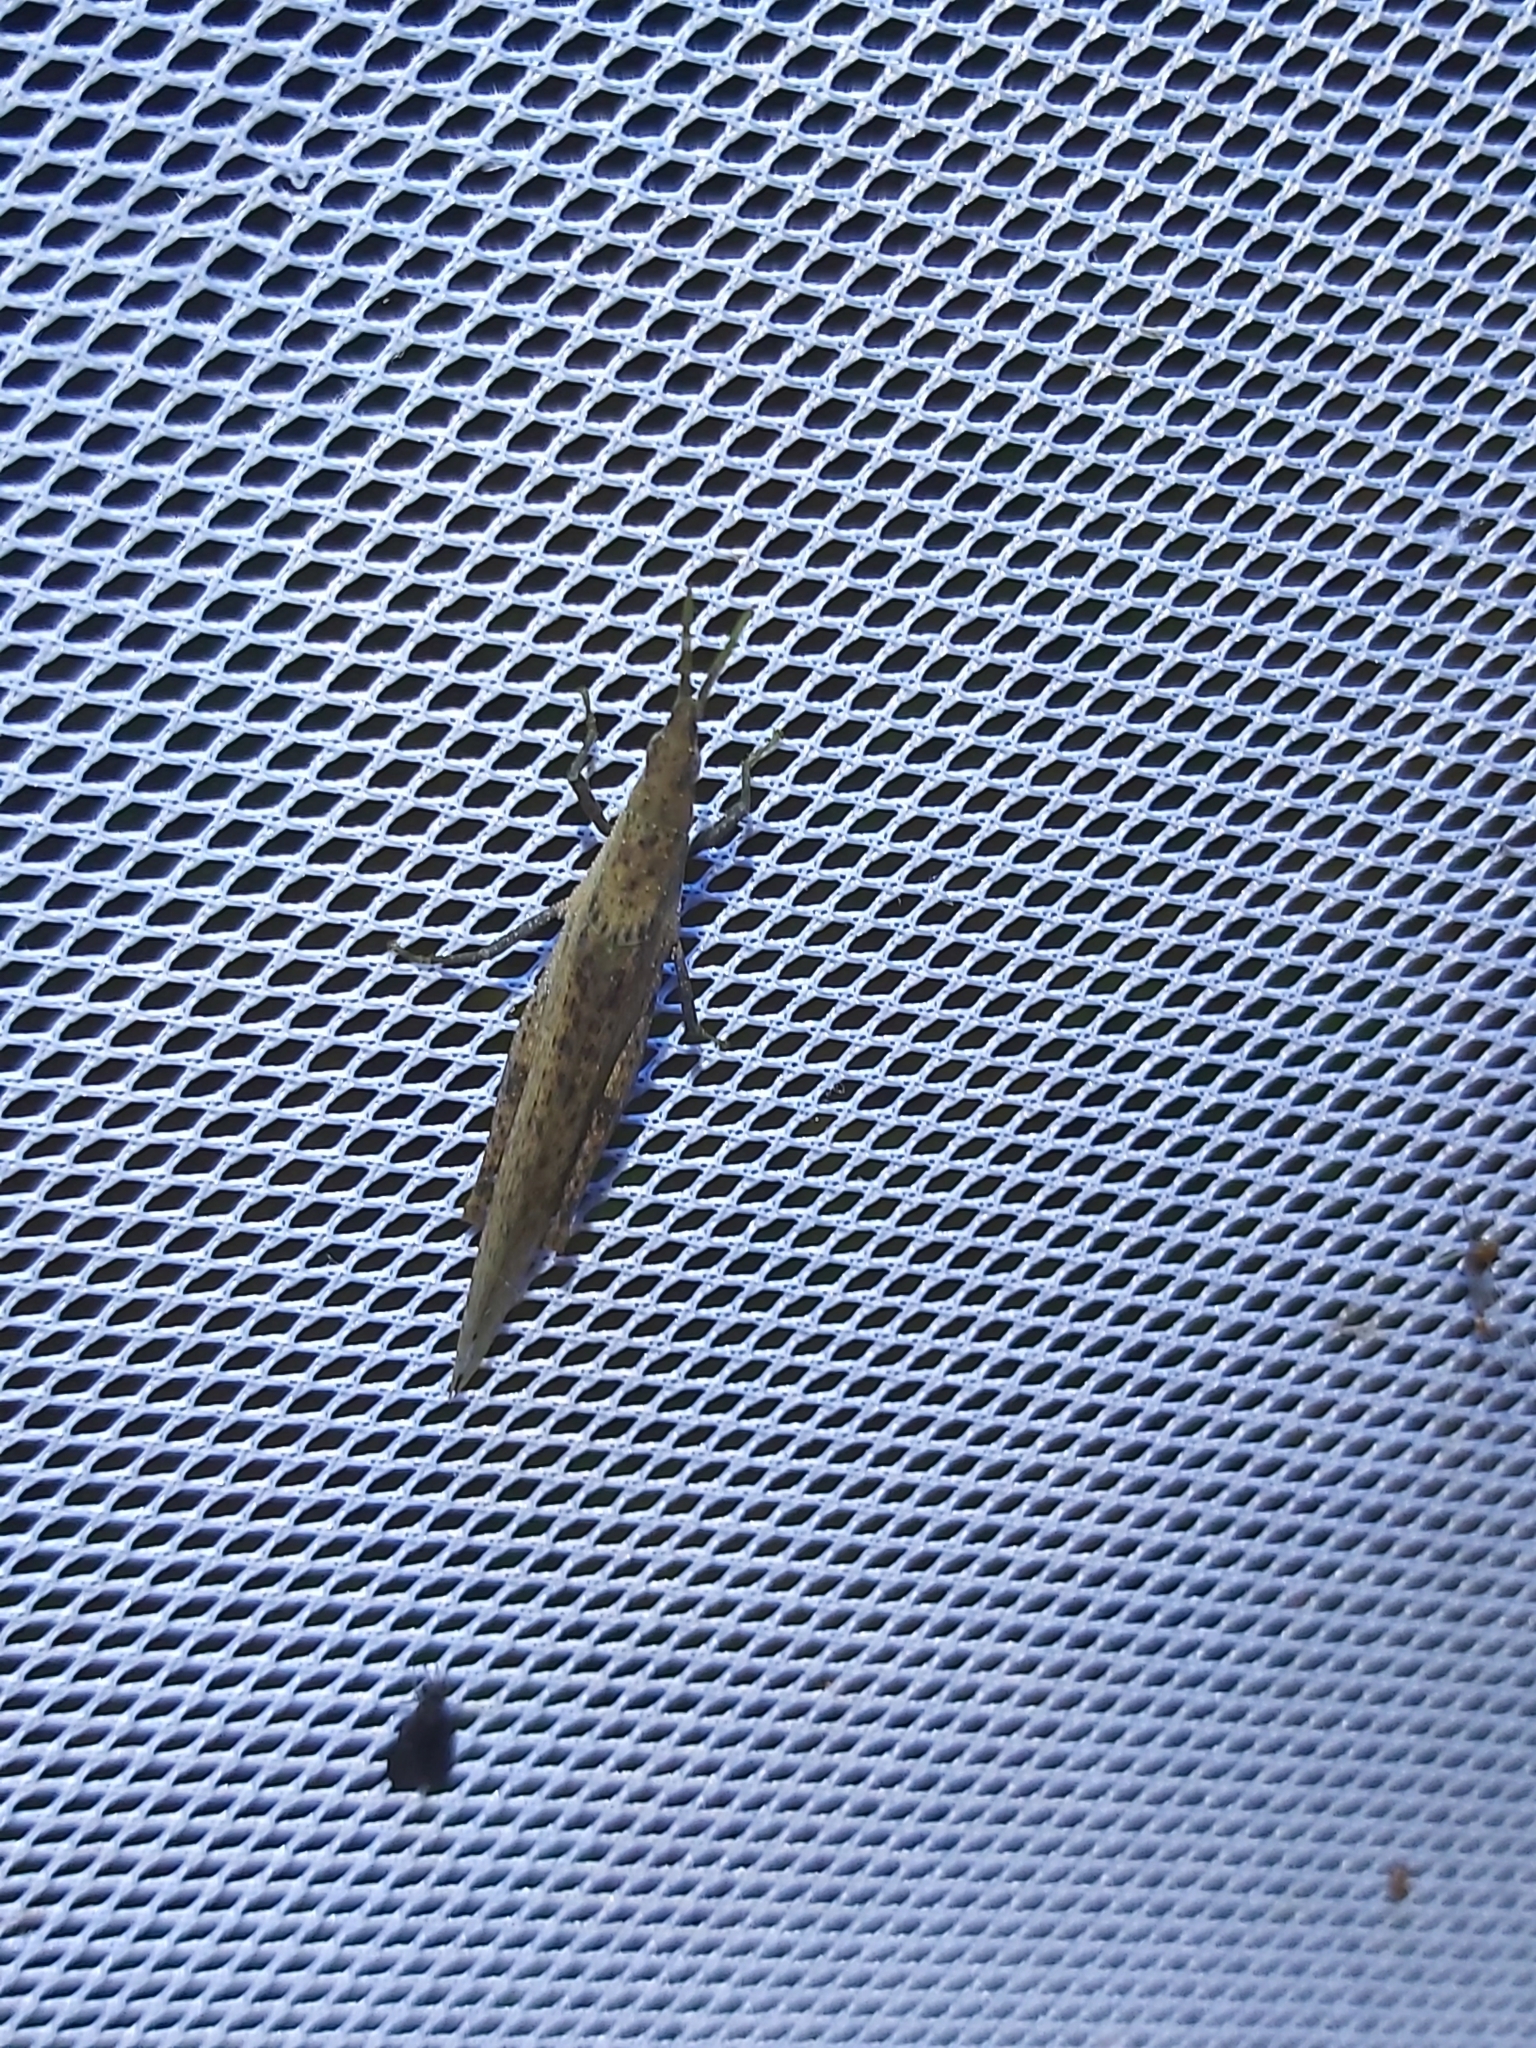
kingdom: Animalia
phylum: Arthropoda
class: Insecta
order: Orthoptera
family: Pyrgomorphidae
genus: Atractomorpha
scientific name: Atractomorpha similis
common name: Northern grass pyrgomorph
